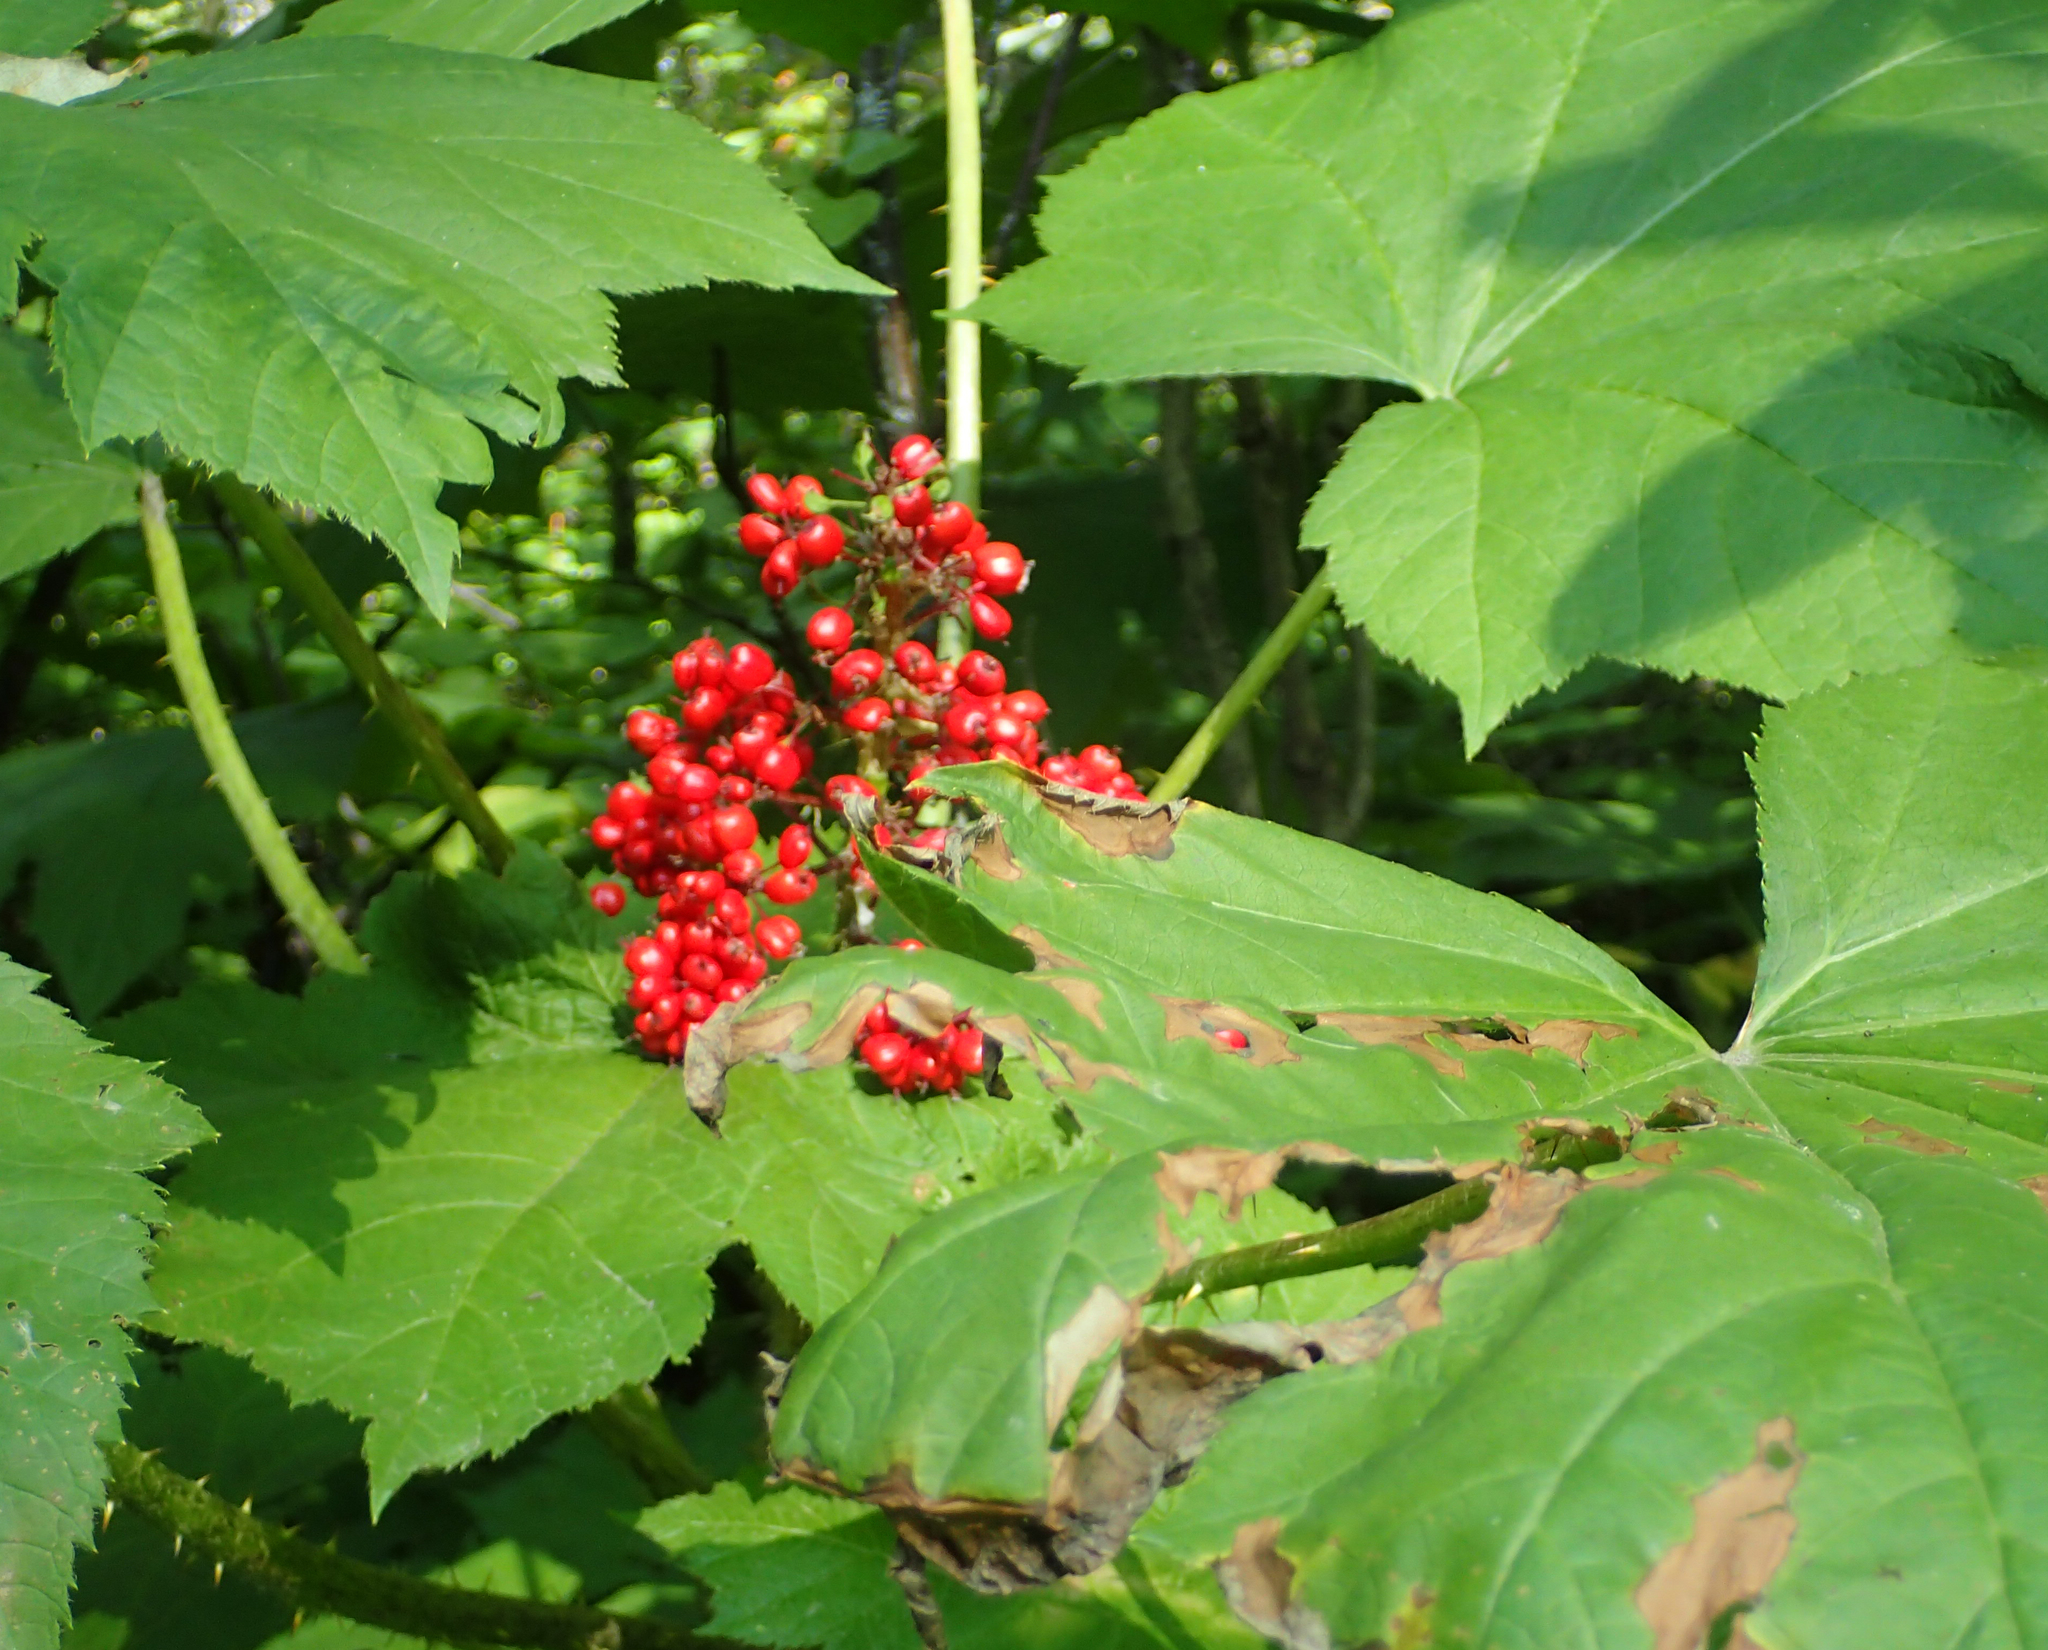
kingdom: Plantae
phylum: Tracheophyta
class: Magnoliopsida
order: Apiales
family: Araliaceae
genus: Oplopanax
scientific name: Oplopanax horridus
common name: Devil's walking-stick
